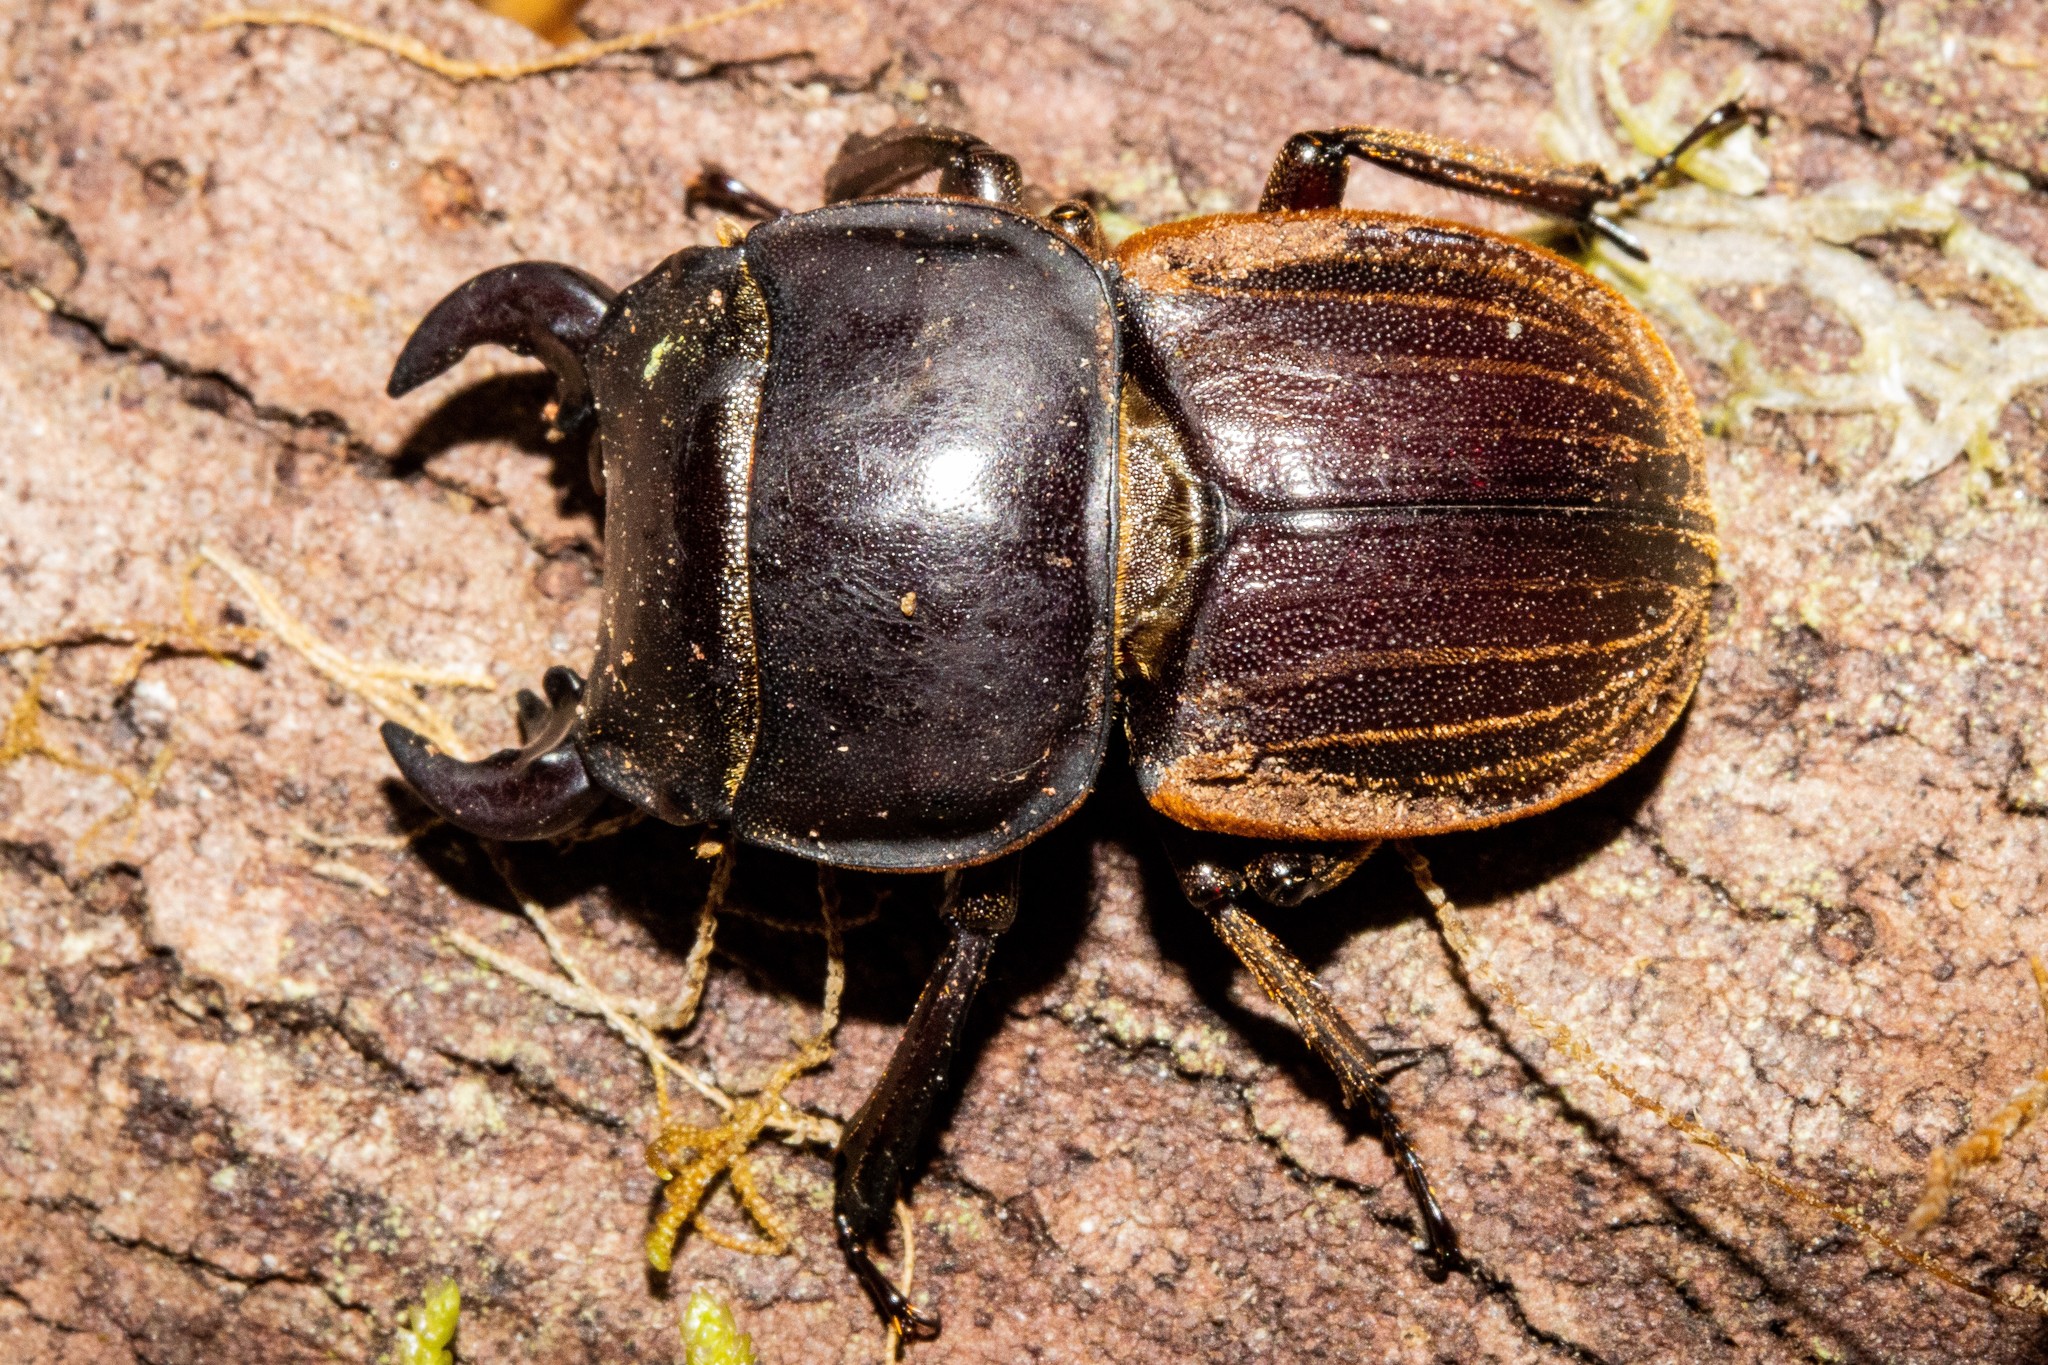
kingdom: Animalia
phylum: Arthropoda
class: Insecta
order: Coleoptera
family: Lucanidae
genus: Geodorcus
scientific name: Geodorcus helmsi
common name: Helm's stag beetle
